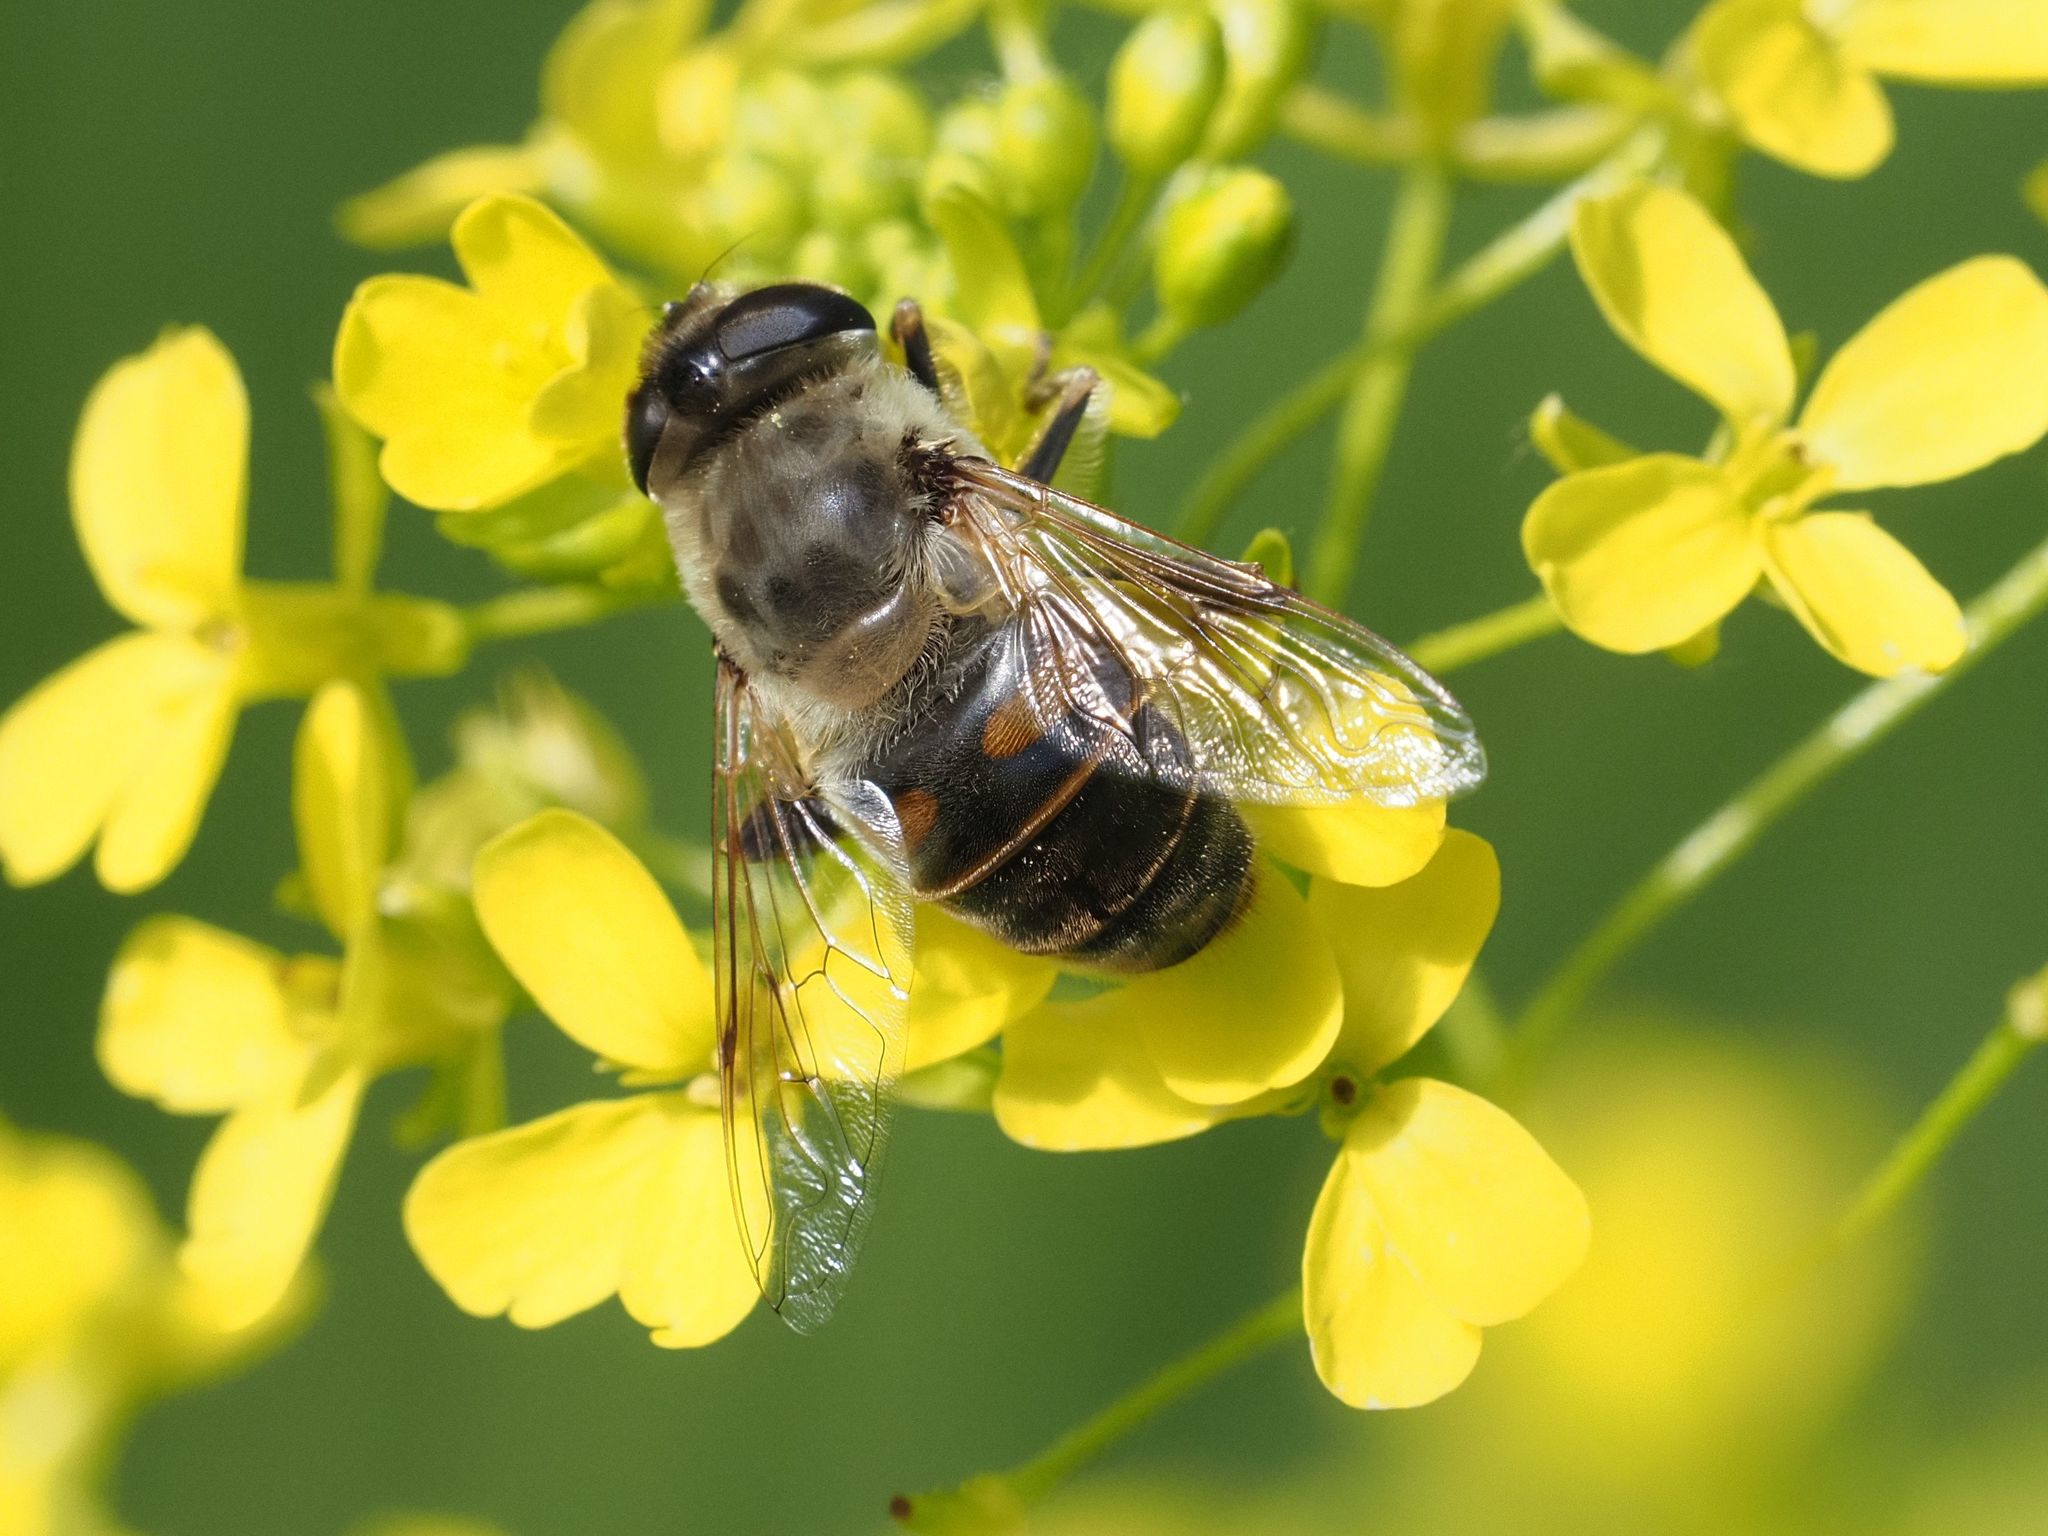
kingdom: Animalia
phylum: Arthropoda
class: Insecta
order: Diptera
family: Syrphidae
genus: Eristalis
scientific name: Eristalis tenax
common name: Drone fly
